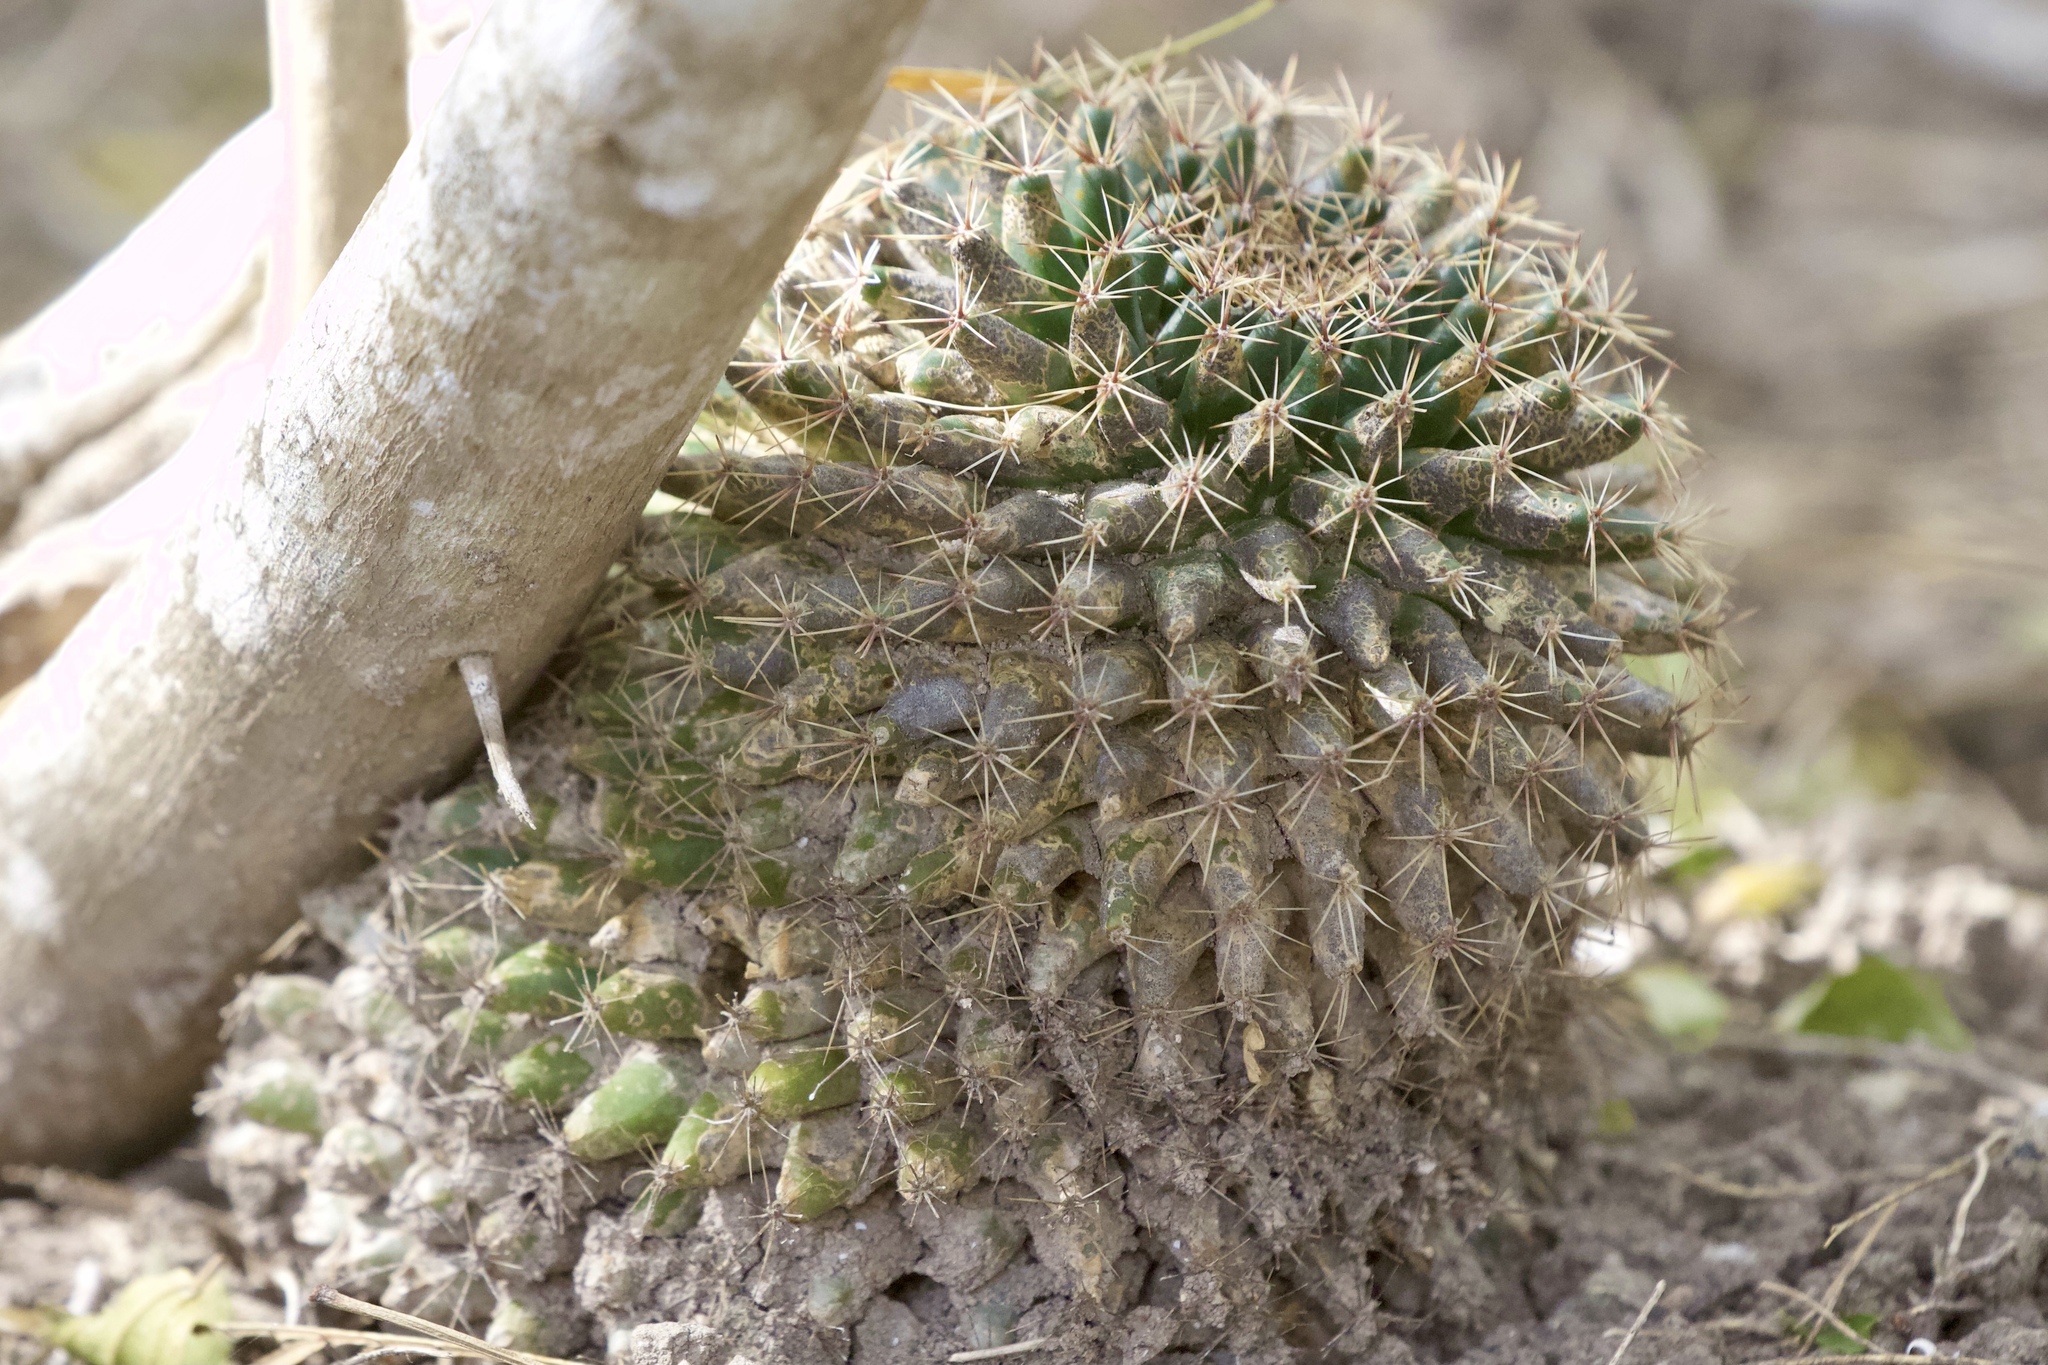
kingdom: Plantae
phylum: Tracheophyta
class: Magnoliopsida
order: Caryophyllales
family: Cactaceae
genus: Mammillaria
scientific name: Mammillaria heyderi
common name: Little nipple cactus
